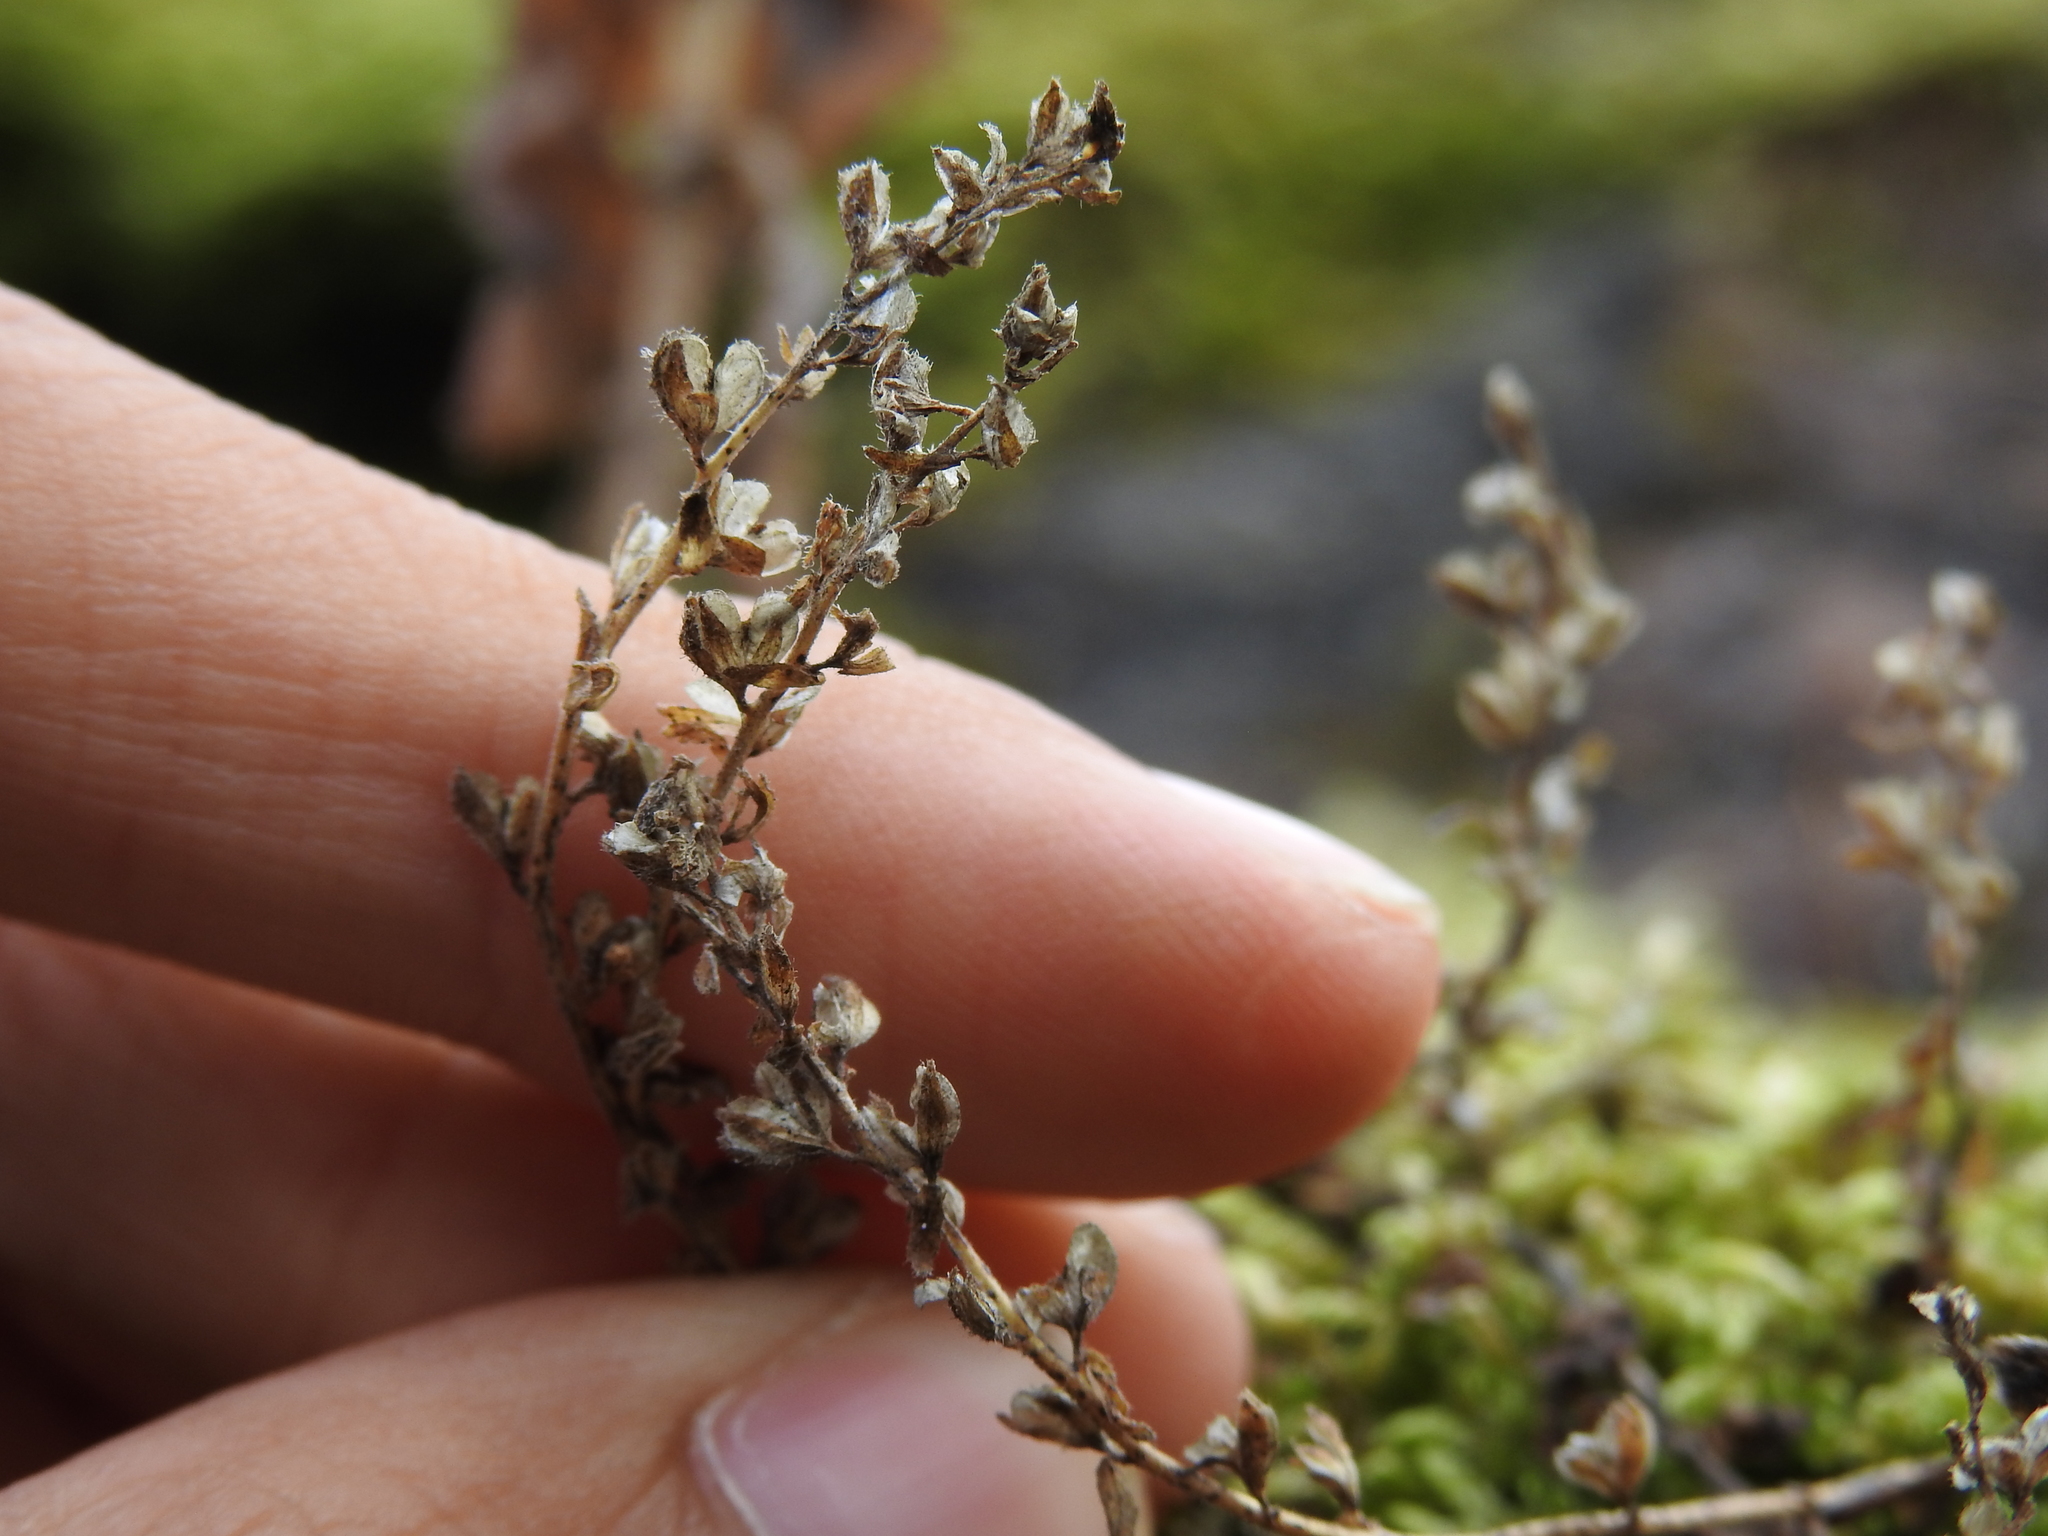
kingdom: Plantae
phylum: Tracheophyta
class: Magnoliopsida
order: Lamiales
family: Plantaginaceae
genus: Veronica
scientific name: Veronica officinalis
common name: Common speedwell
